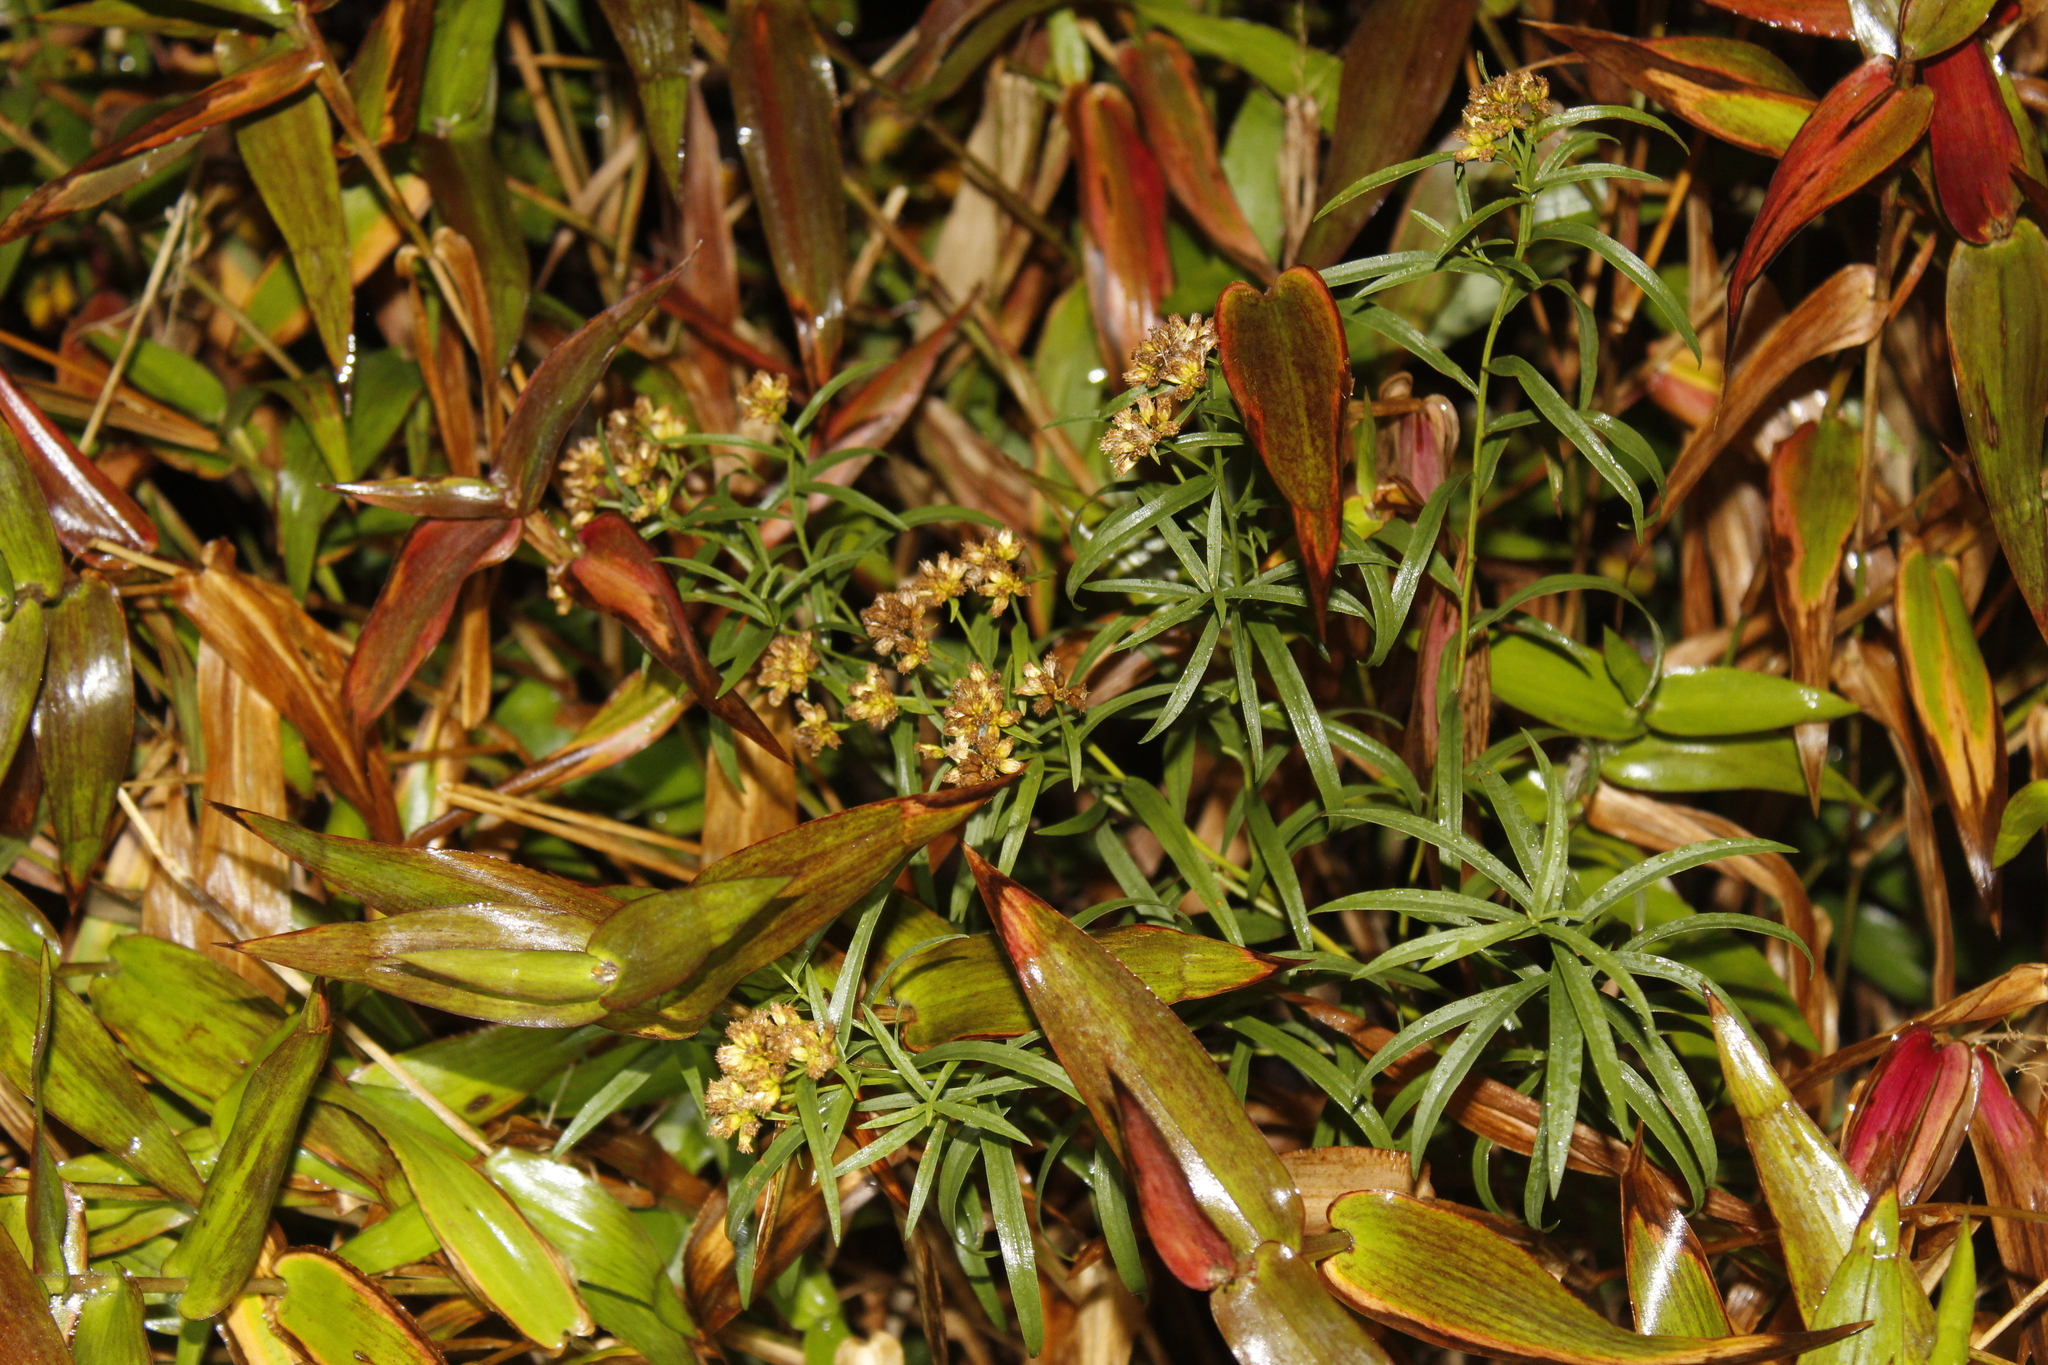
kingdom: Plantae
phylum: Tracheophyta
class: Magnoliopsida
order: Asterales
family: Asteraceae
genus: Euthamia
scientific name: Euthamia graminifolia
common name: Common goldentop
